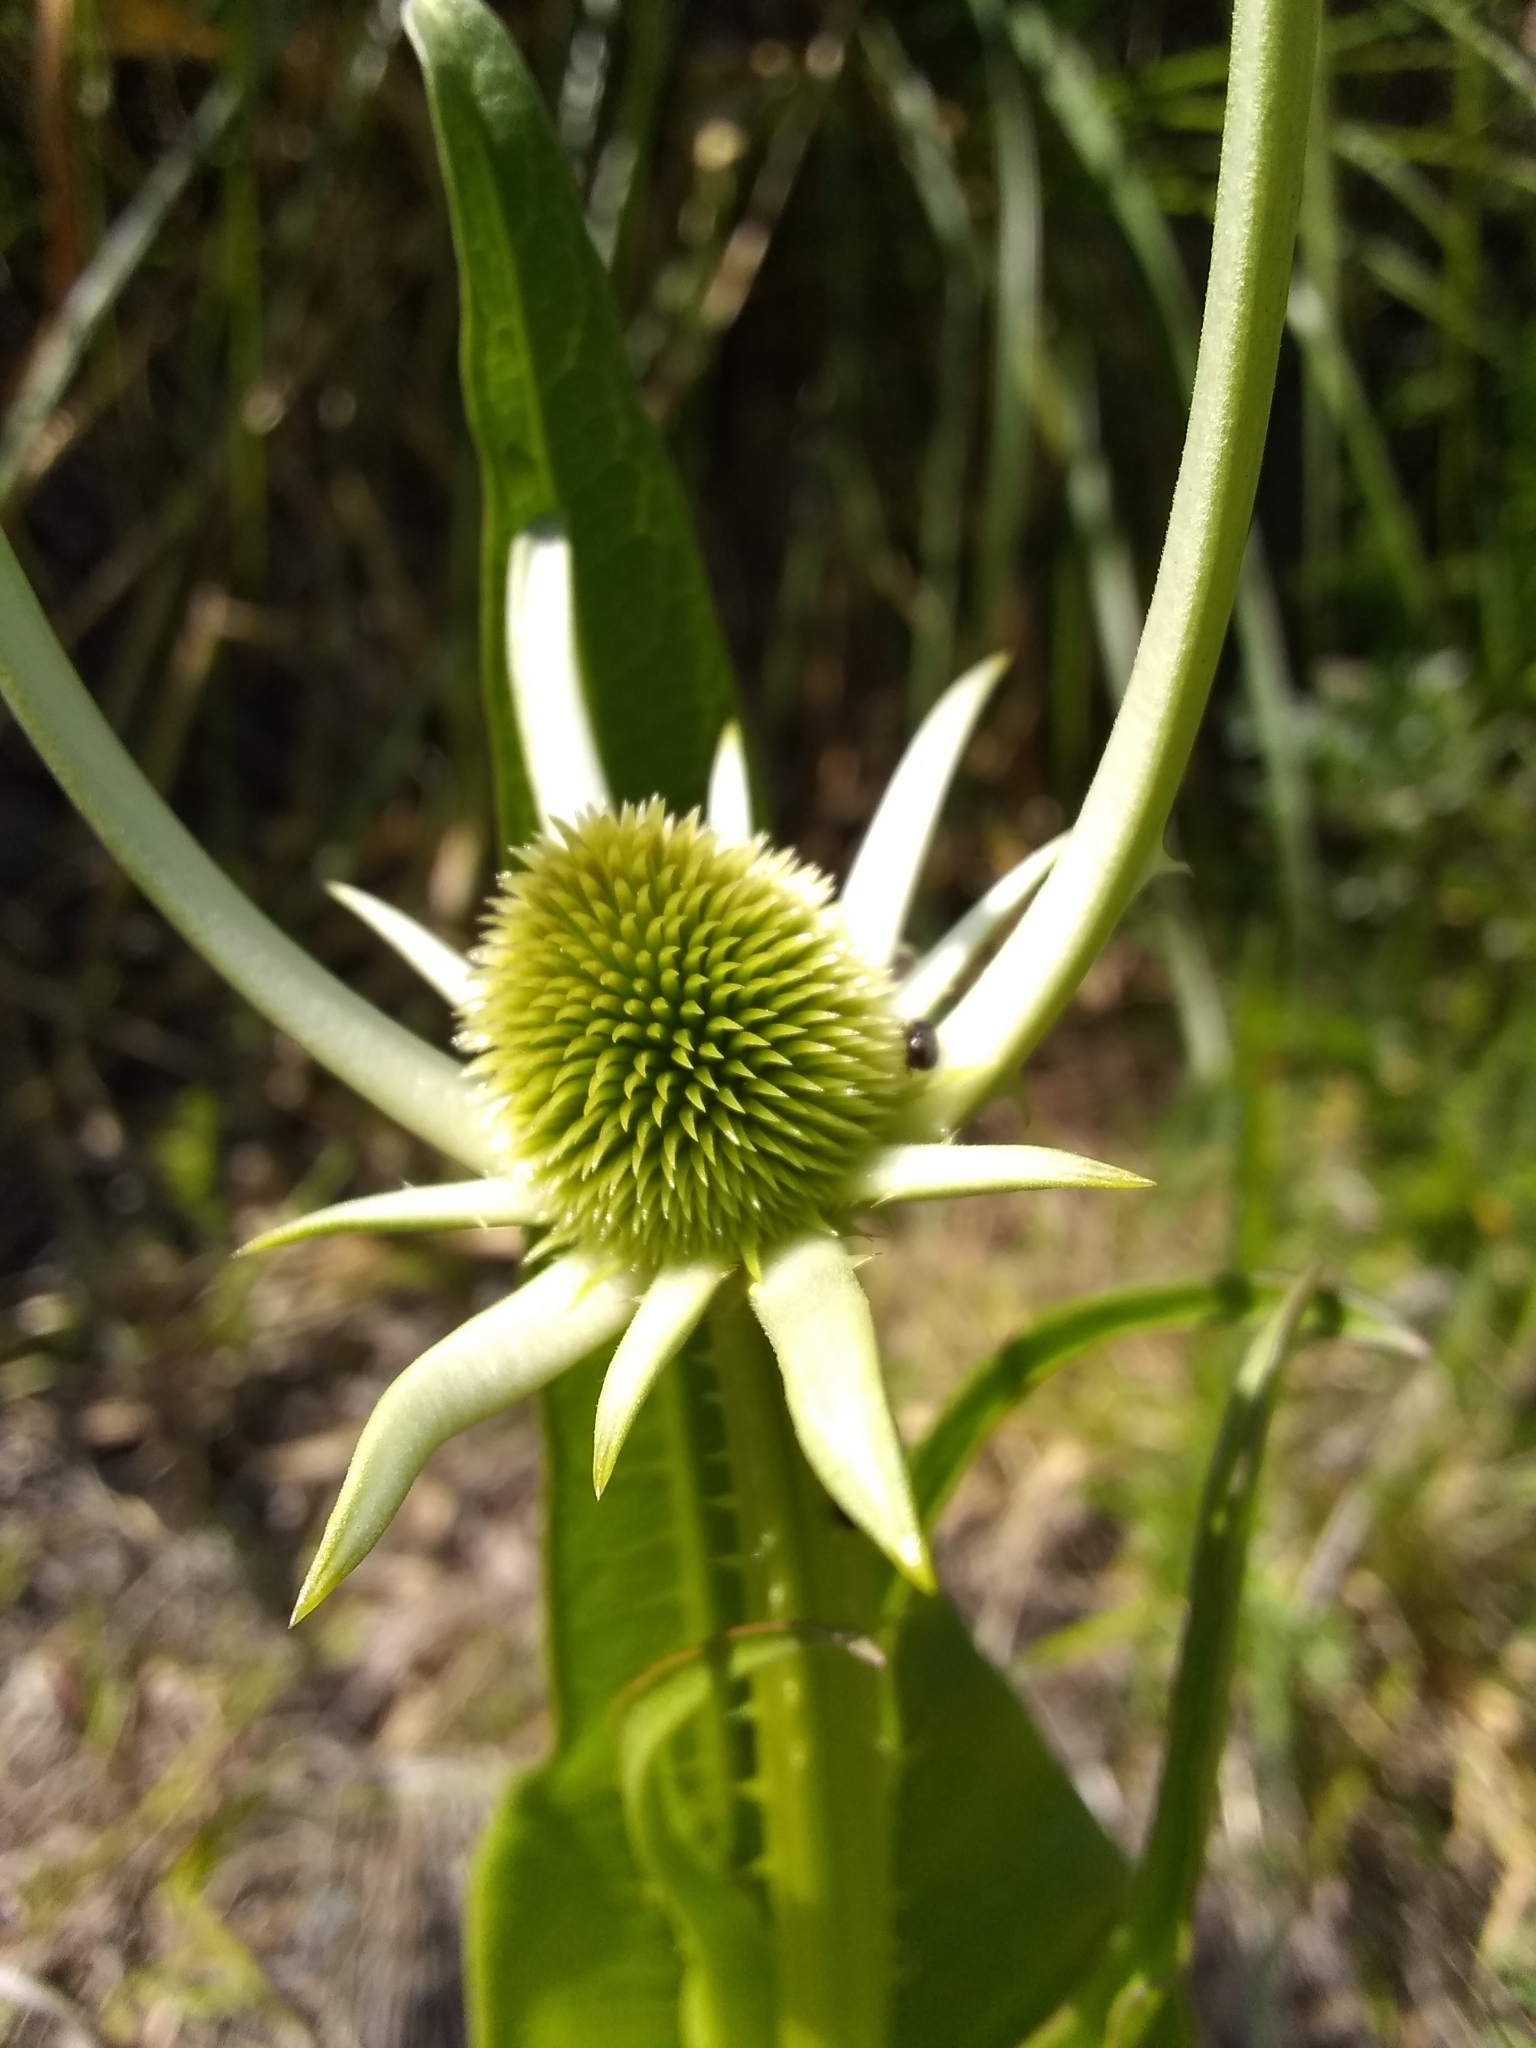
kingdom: Plantae
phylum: Tracheophyta
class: Magnoliopsida
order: Dipsacales
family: Caprifoliaceae
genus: Dipsacus
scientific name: Dipsacus sativus
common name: Fuller's teasel
